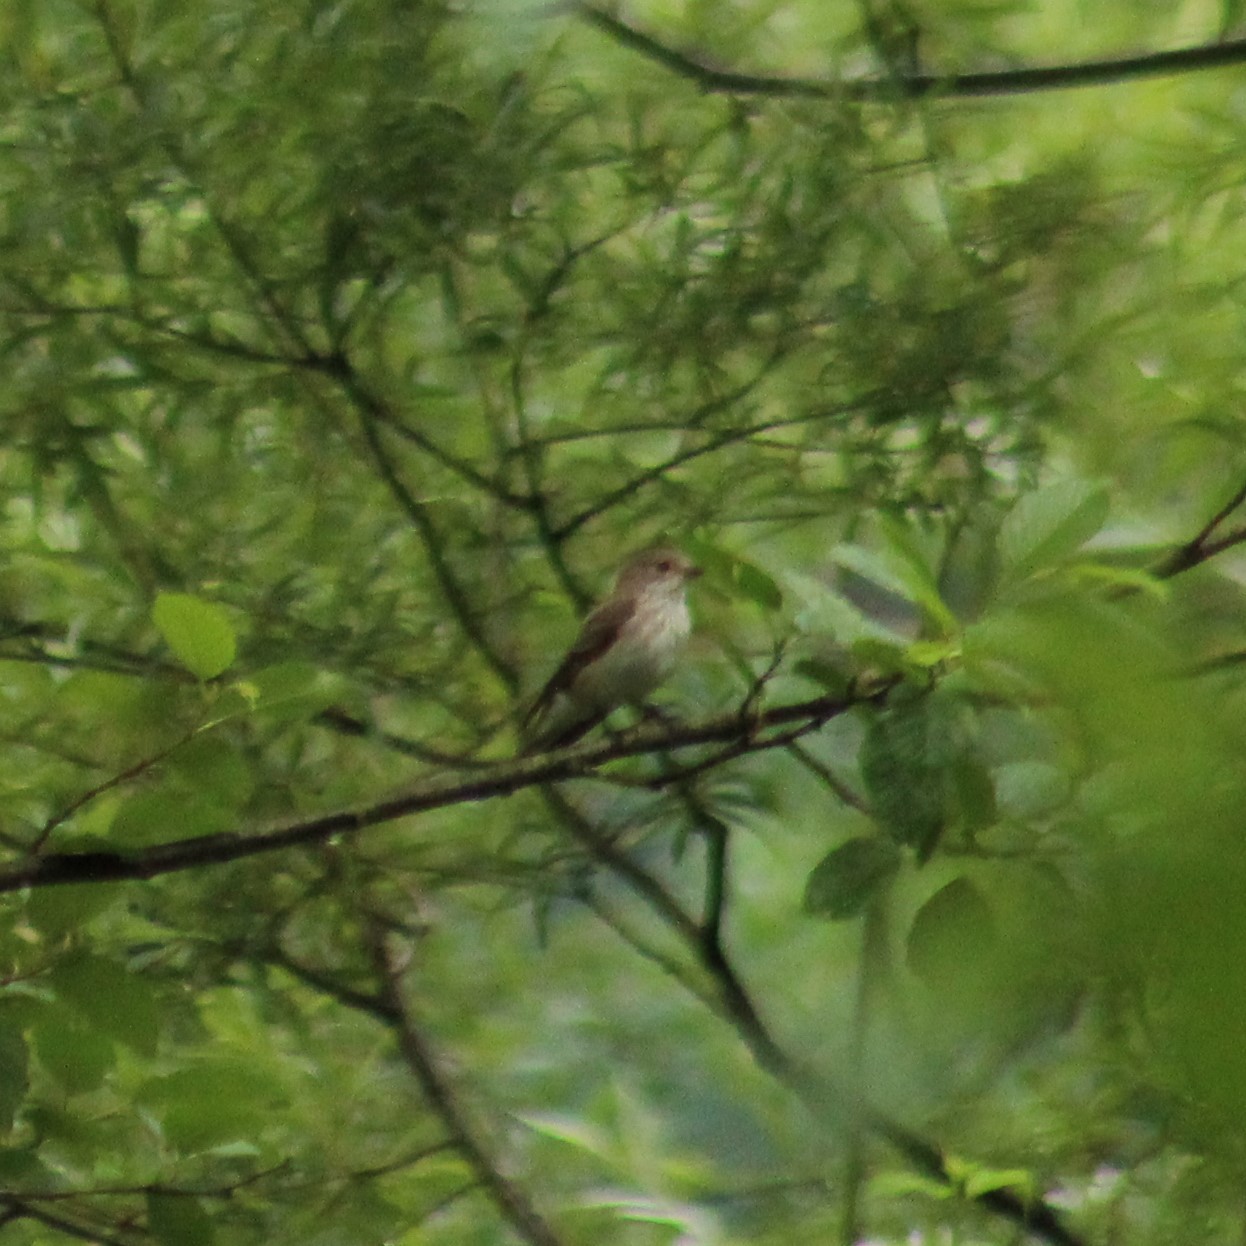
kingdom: Animalia
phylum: Chordata
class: Aves
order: Passeriformes
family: Muscicapidae
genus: Muscicapa
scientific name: Muscicapa striata
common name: Spotted flycatcher
